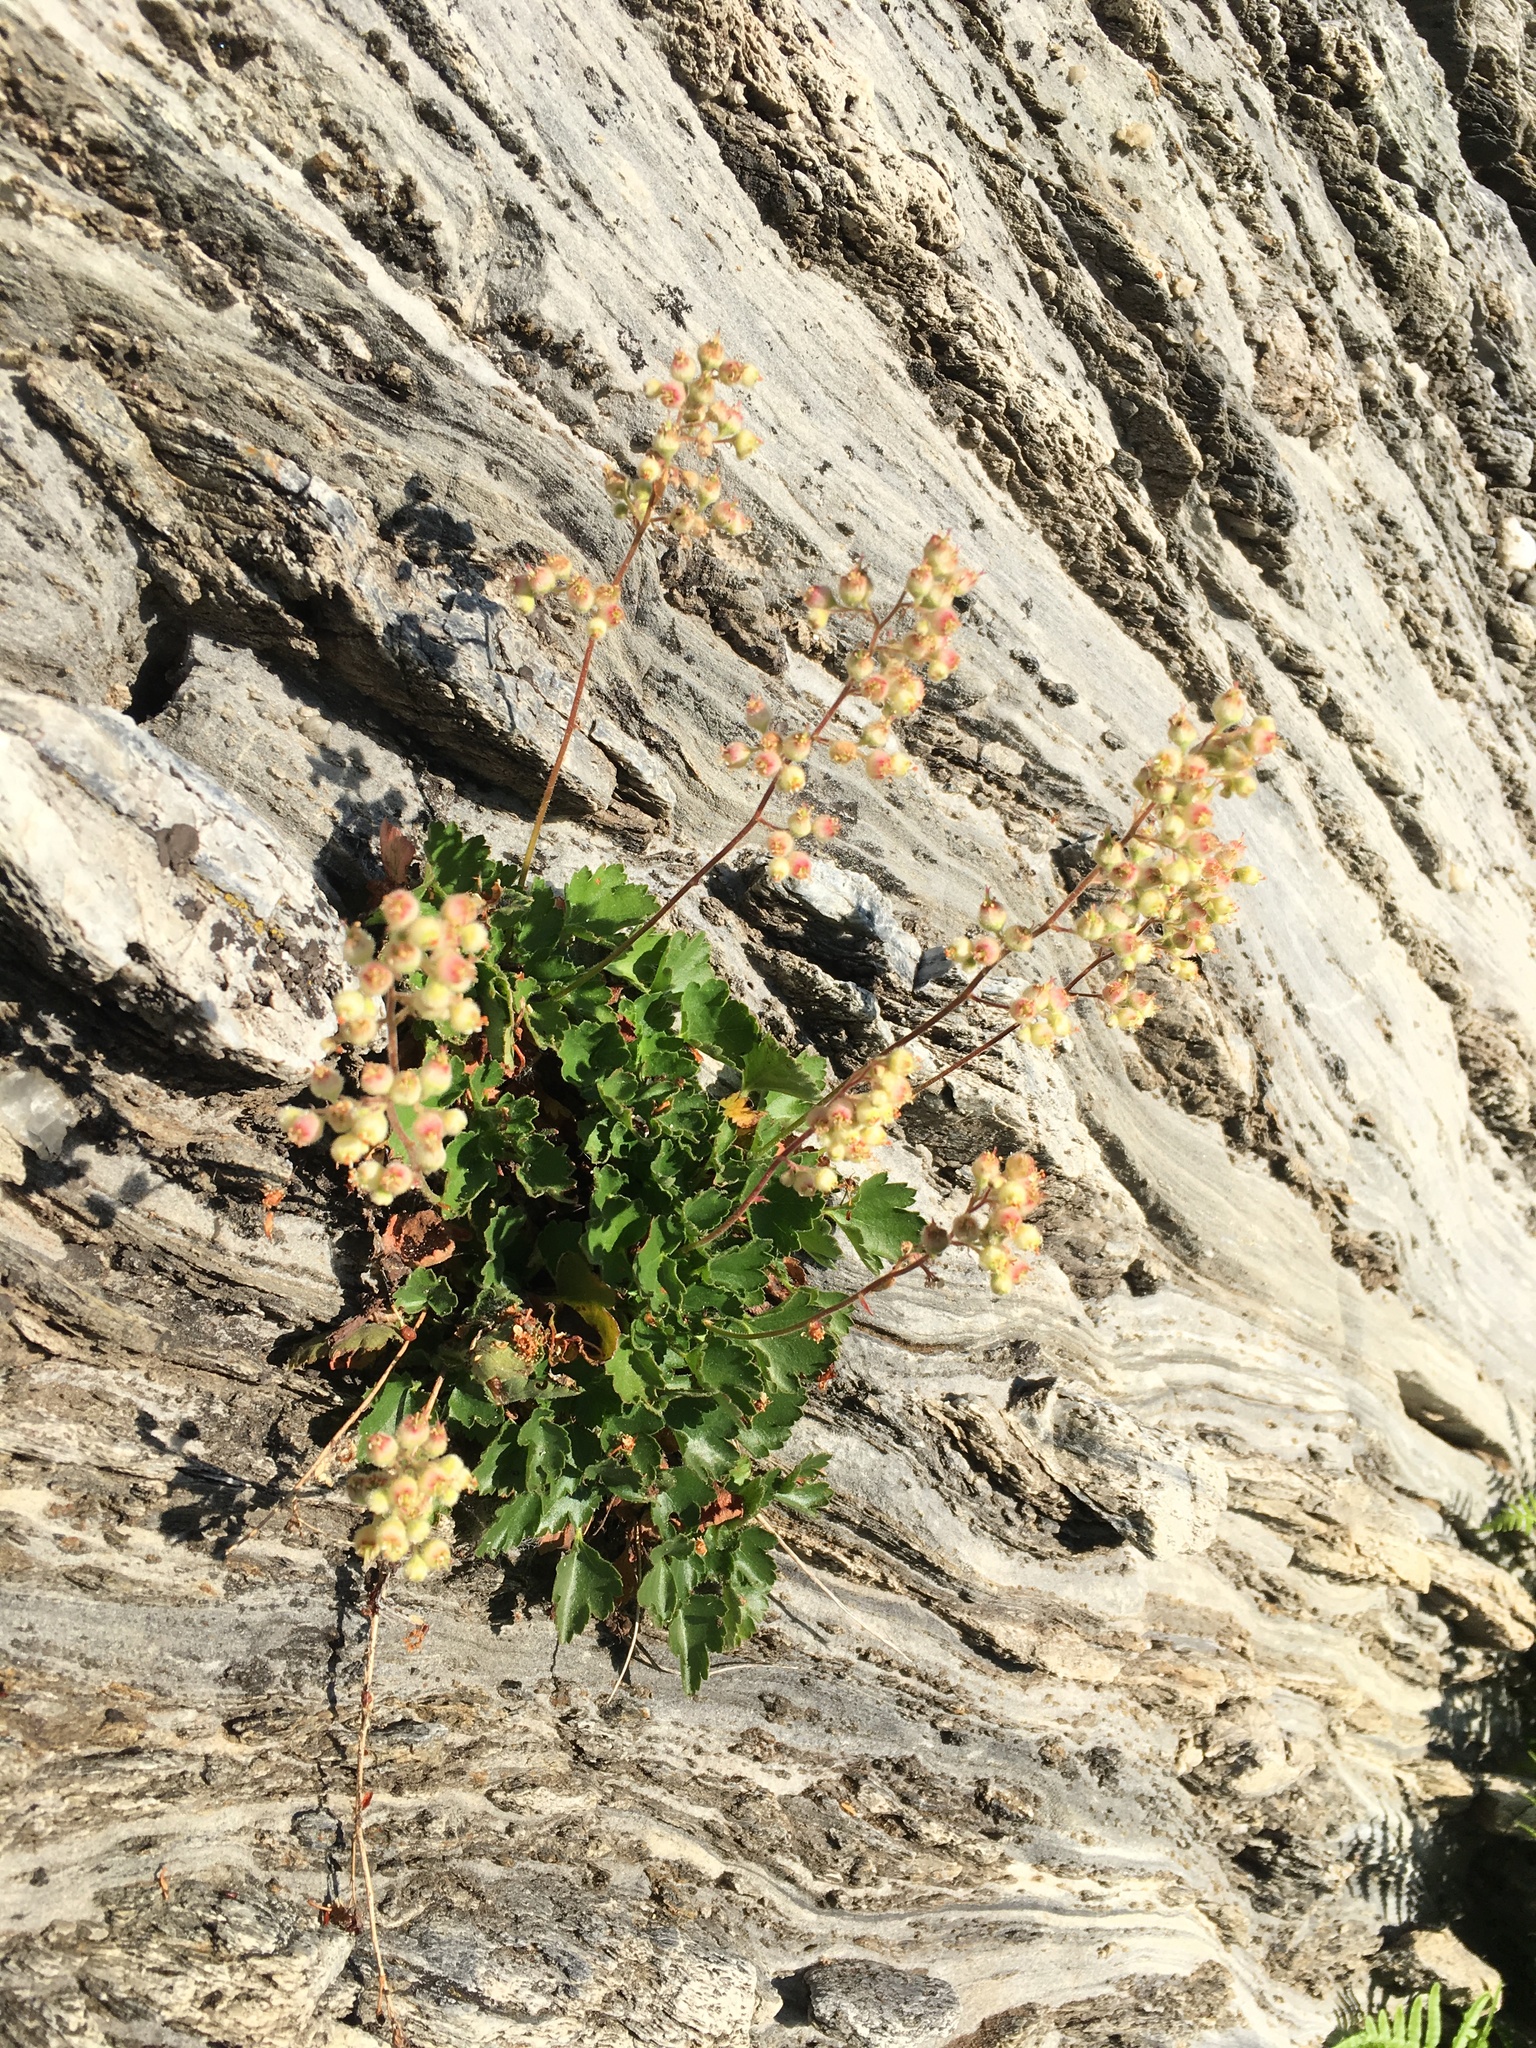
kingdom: Plantae
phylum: Tracheophyta
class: Magnoliopsida
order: Saxifragales
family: Saxifragaceae
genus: Heuchera
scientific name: Heuchera merriamii
